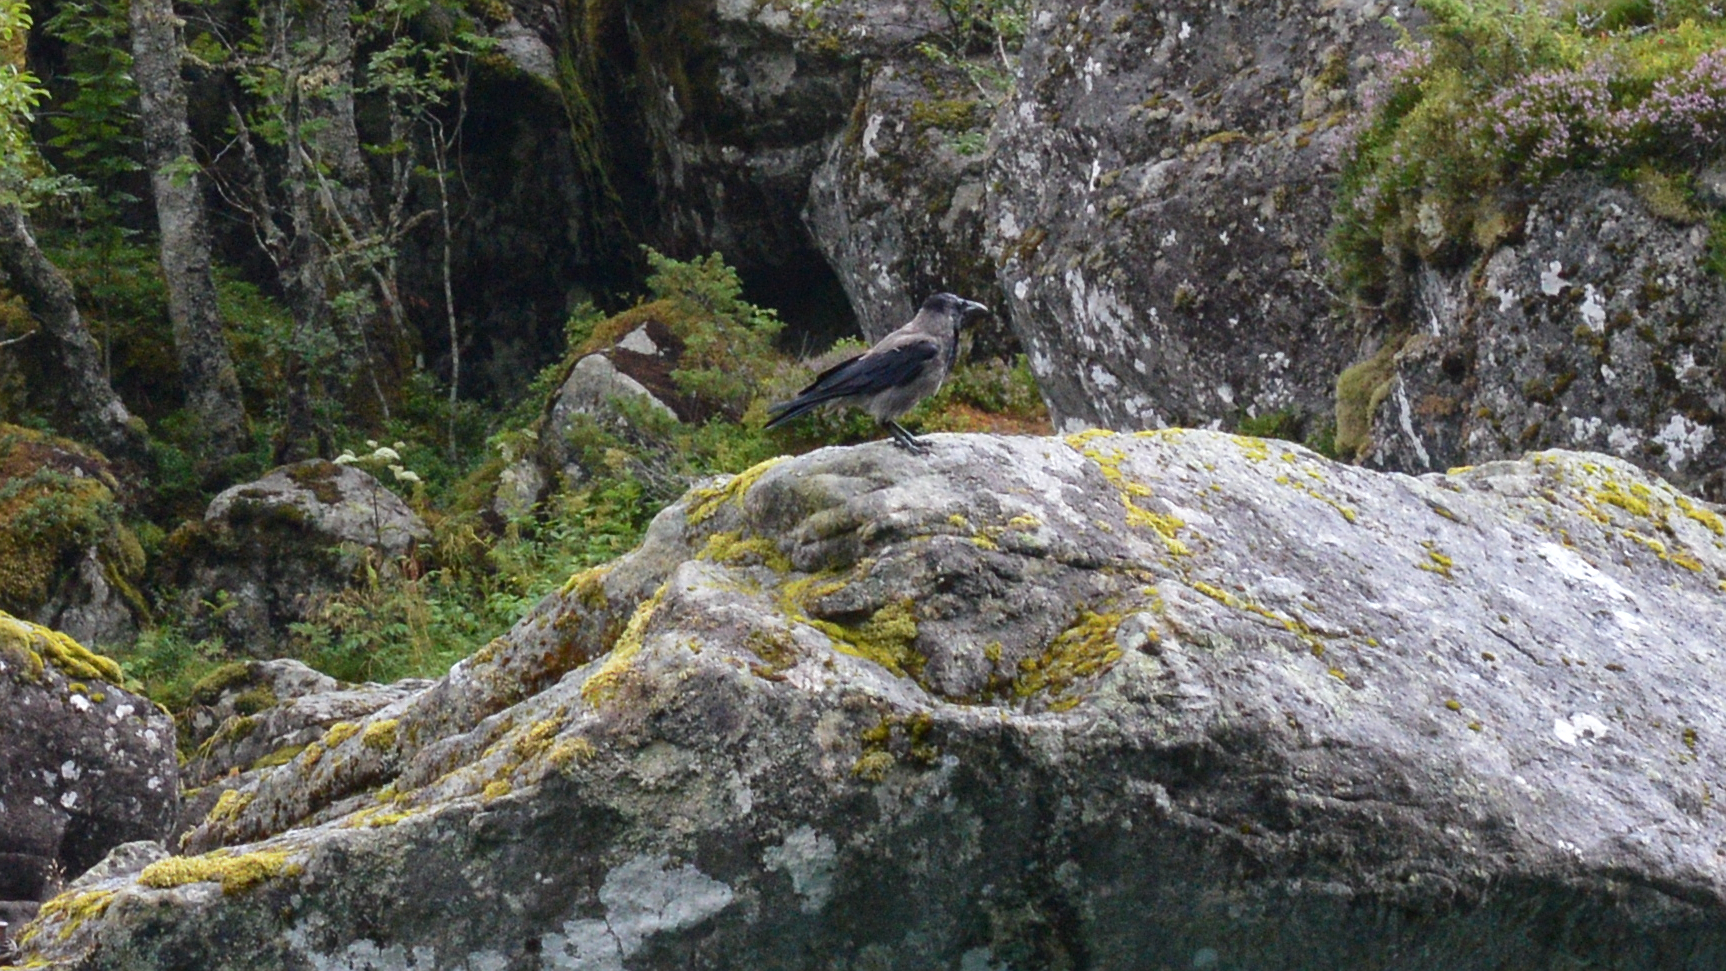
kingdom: Animalia
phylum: Chordata
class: Aves
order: Passeriformes
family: Corvidae
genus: Corvus
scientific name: Corvus cornix
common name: Hooded crow
